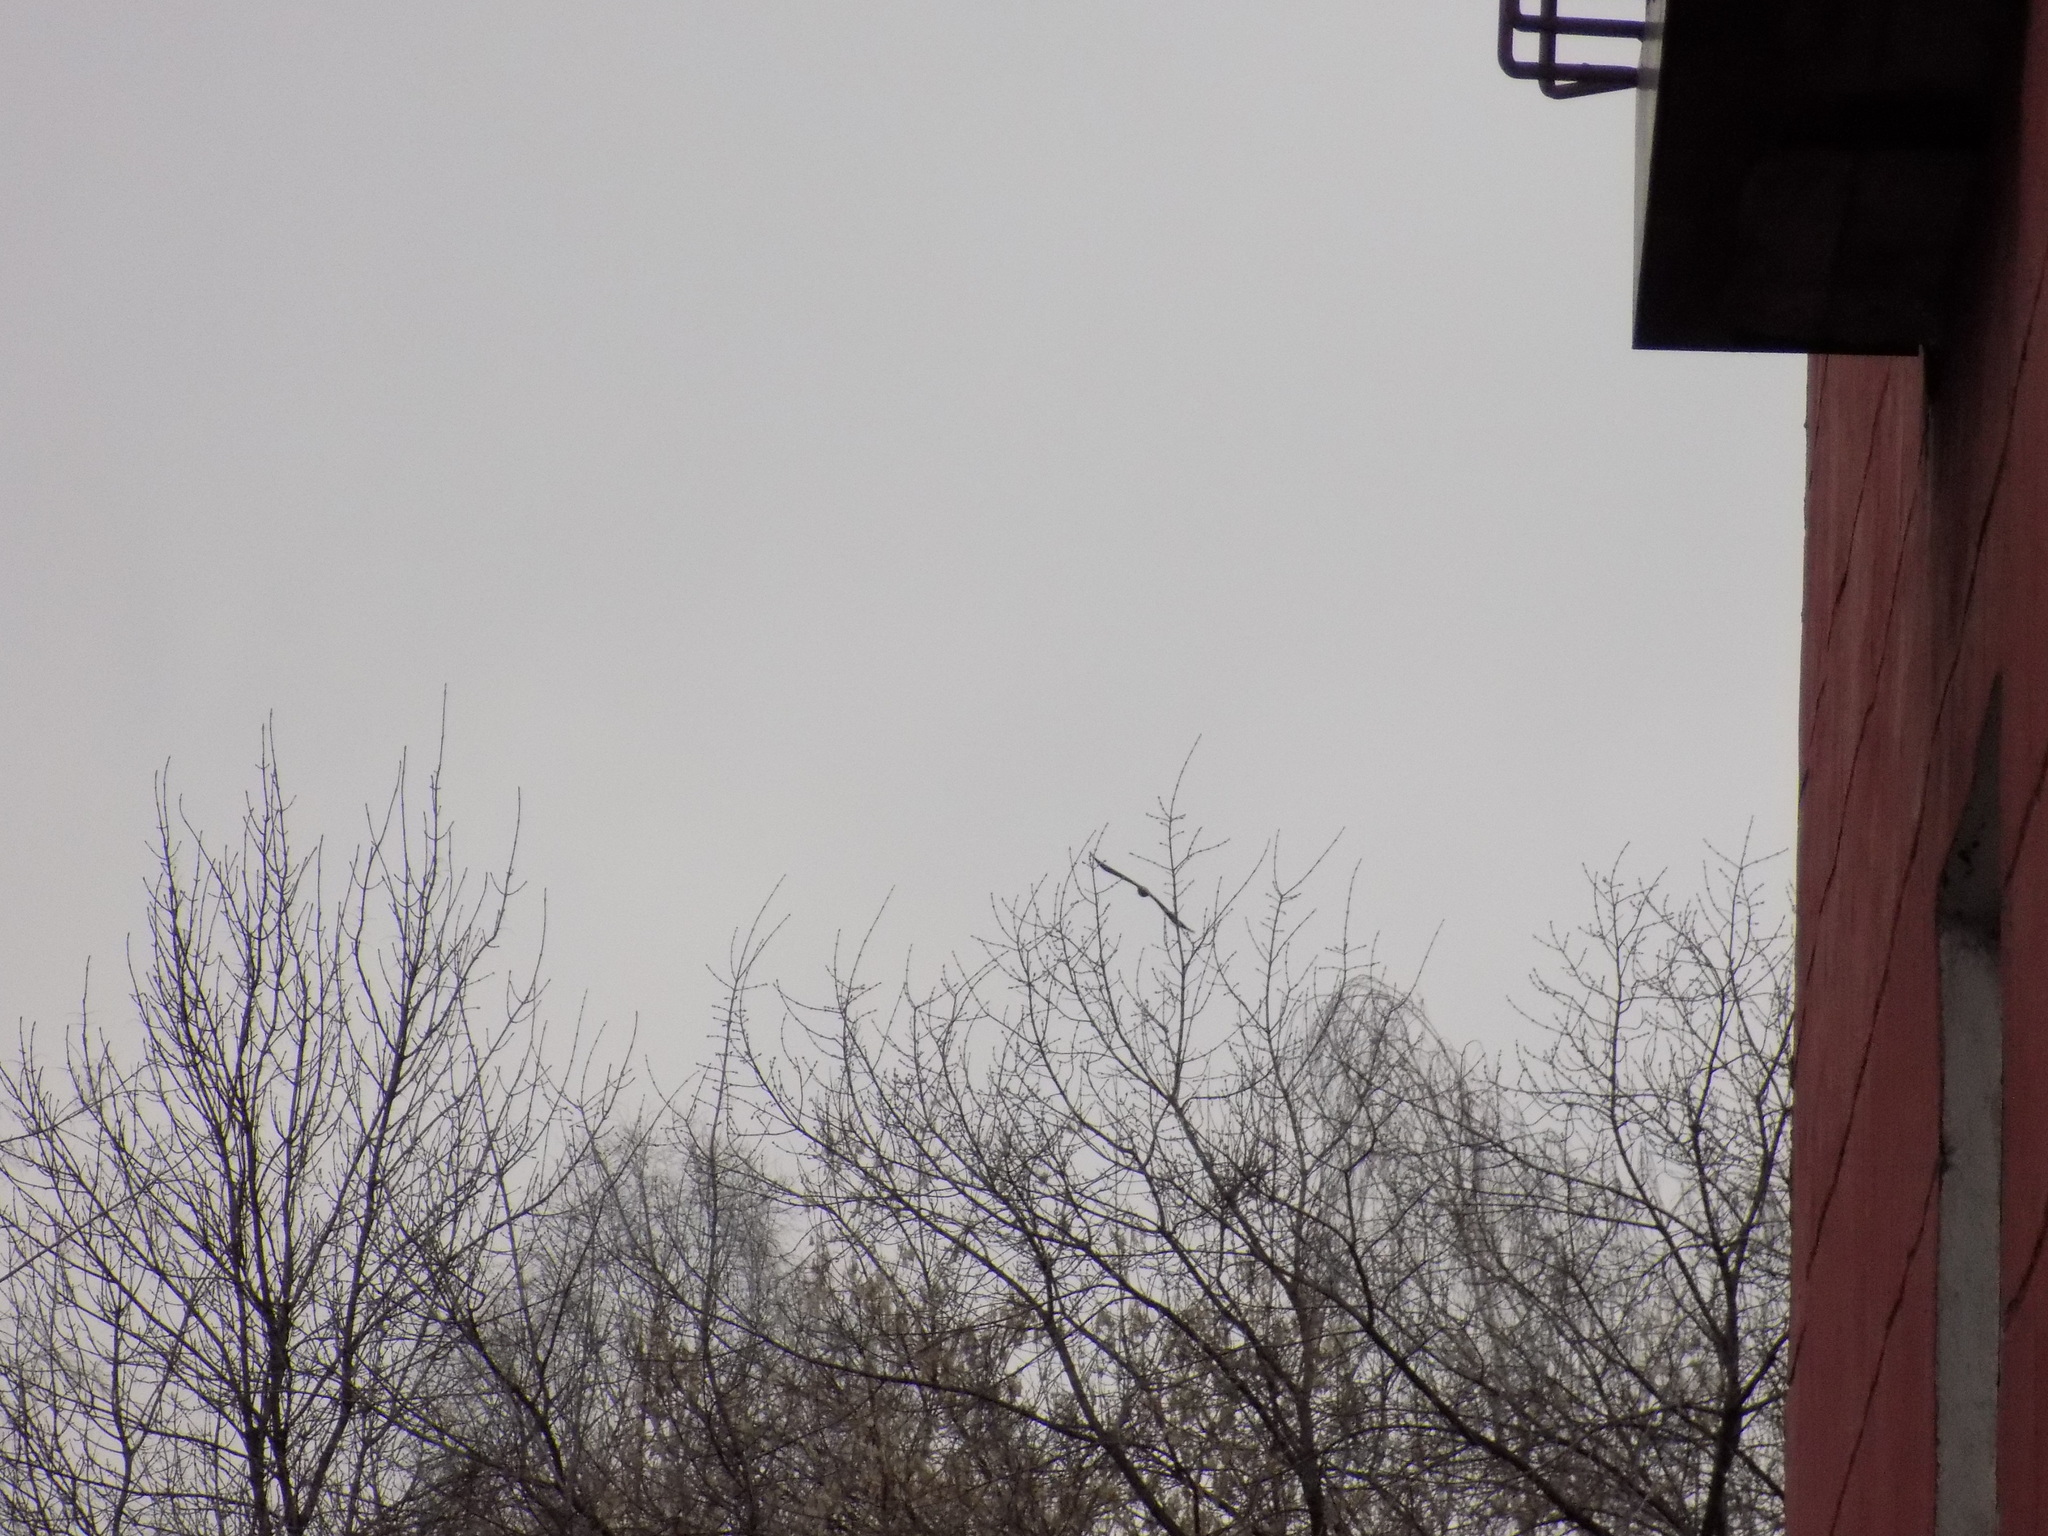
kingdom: Animalia
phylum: Chordata
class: Aves
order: Accipitriformes
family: Accipitridae
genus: Milvus
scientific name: Milvus migrans
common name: Black kite
